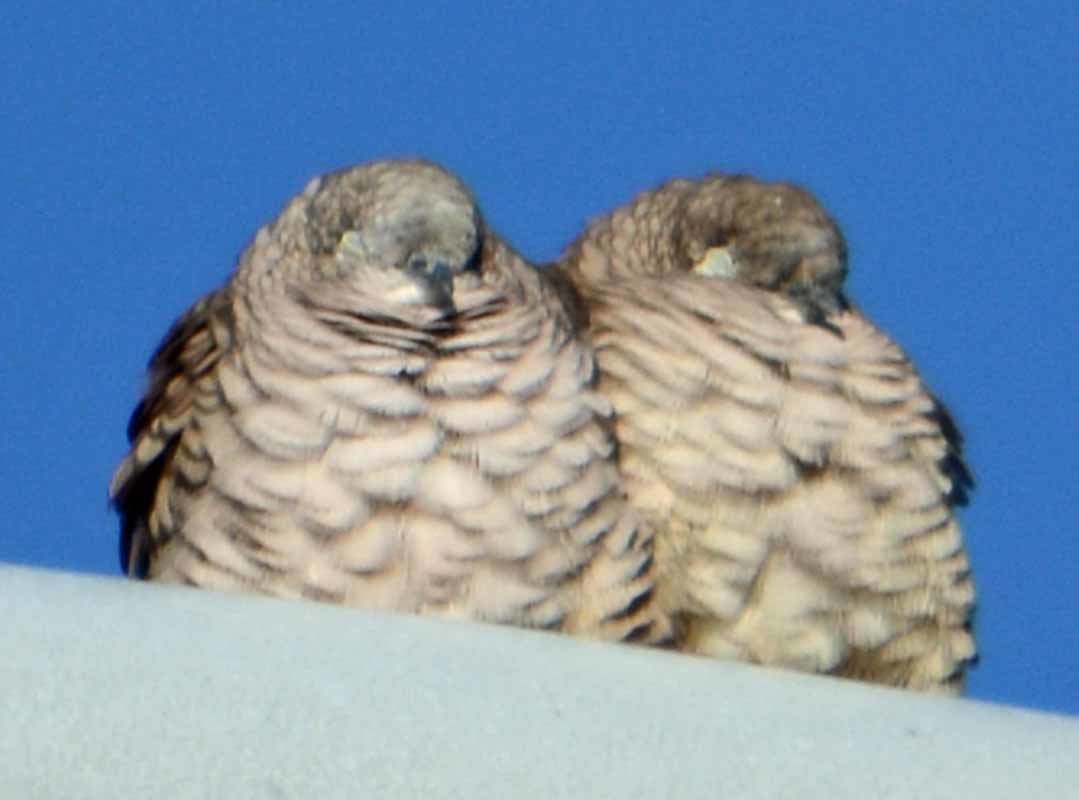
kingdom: Animalia
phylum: Chordata
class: Aves
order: Columbiformes
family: Columbidae
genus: Columbina
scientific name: Columbina inca
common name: Inca dove
